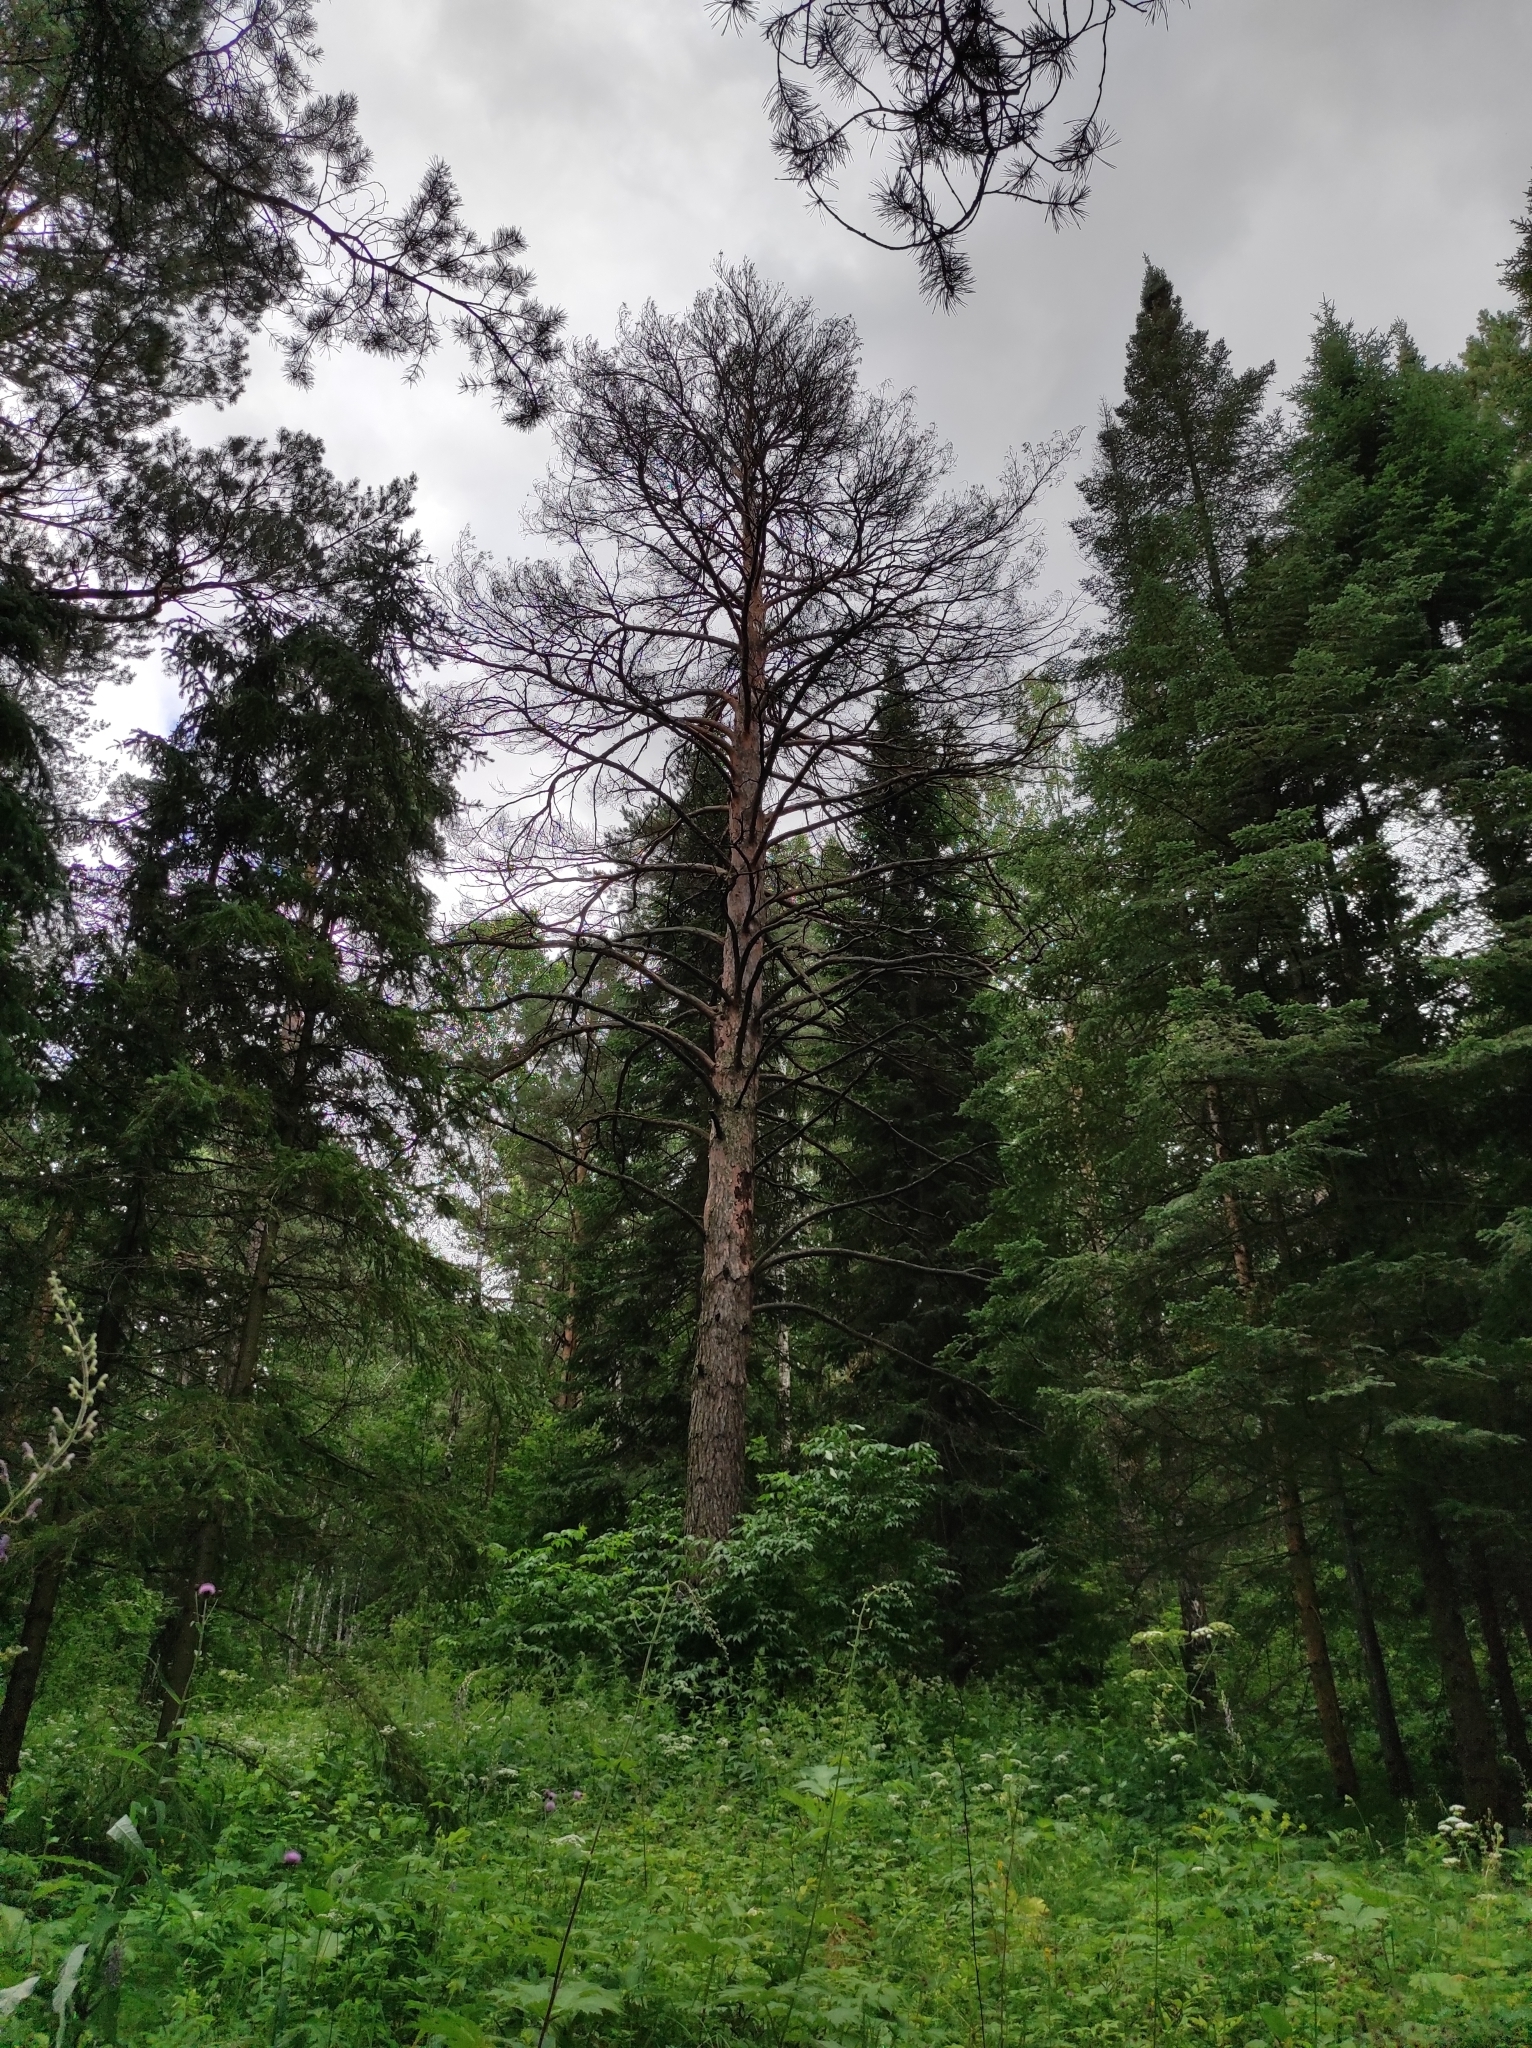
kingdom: Plantae
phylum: Tracheophyta
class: Pinopsida
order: Pinales
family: Pinaceae
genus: Pinus
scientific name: Pinus sylvestris
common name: Scots pine
